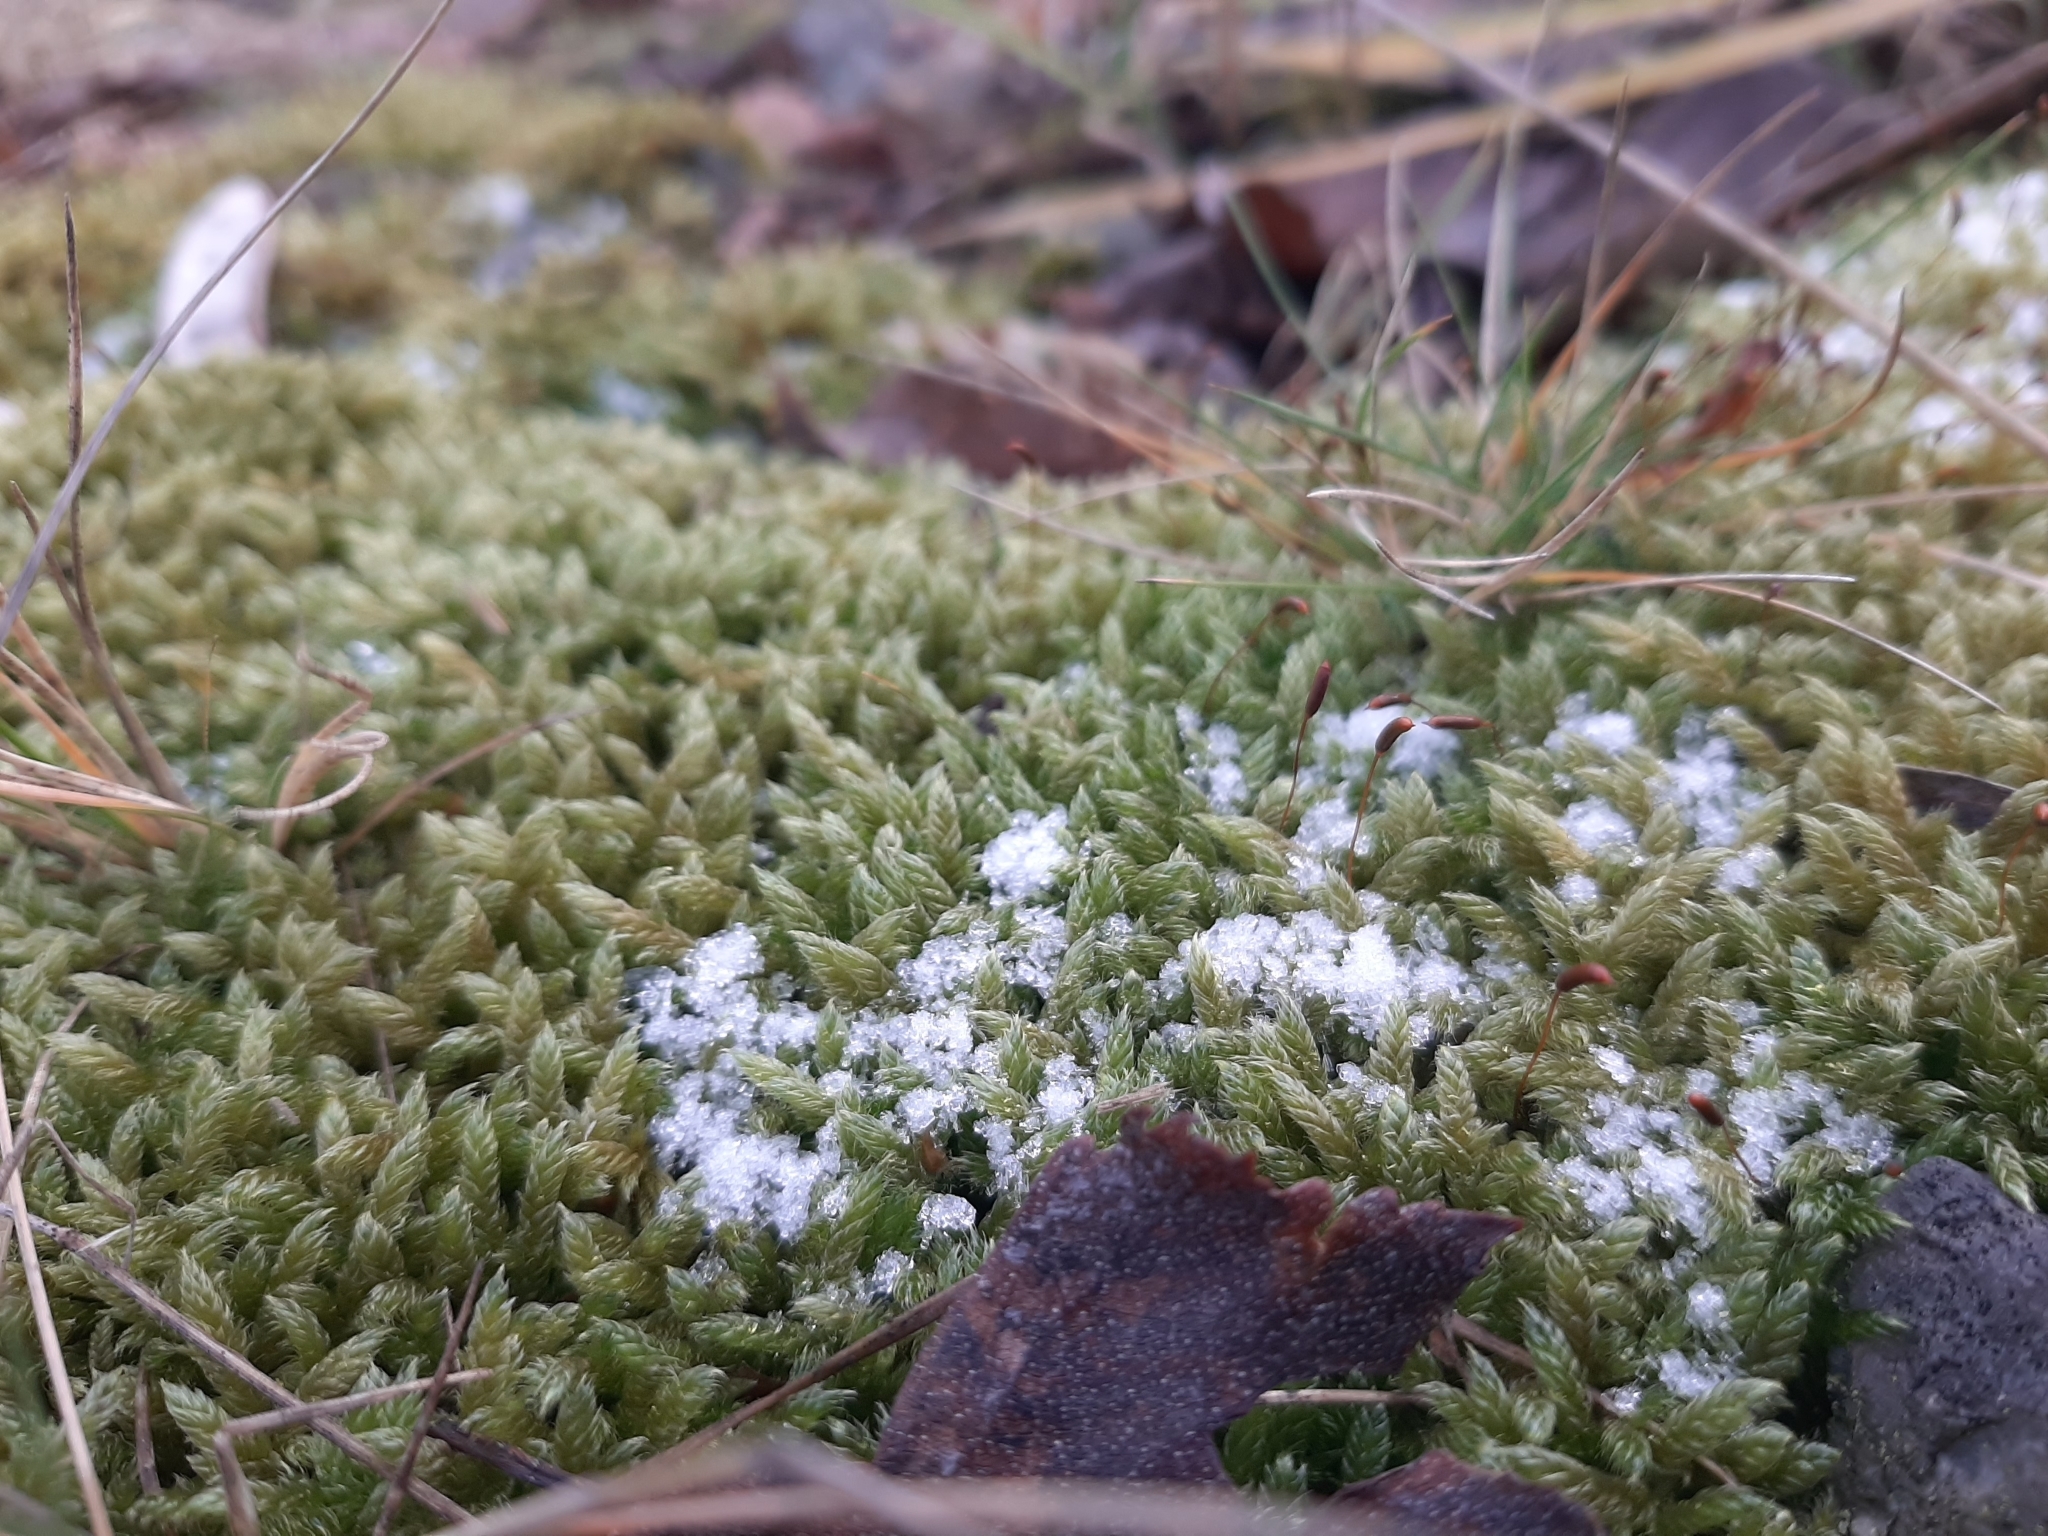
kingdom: Plantae
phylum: Bryophyta
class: Bryopsida
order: Hypnales
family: Hypnaceae
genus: Hypnum
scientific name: Hypnum cupressiforme
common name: Cypress-leaved plait-moss
